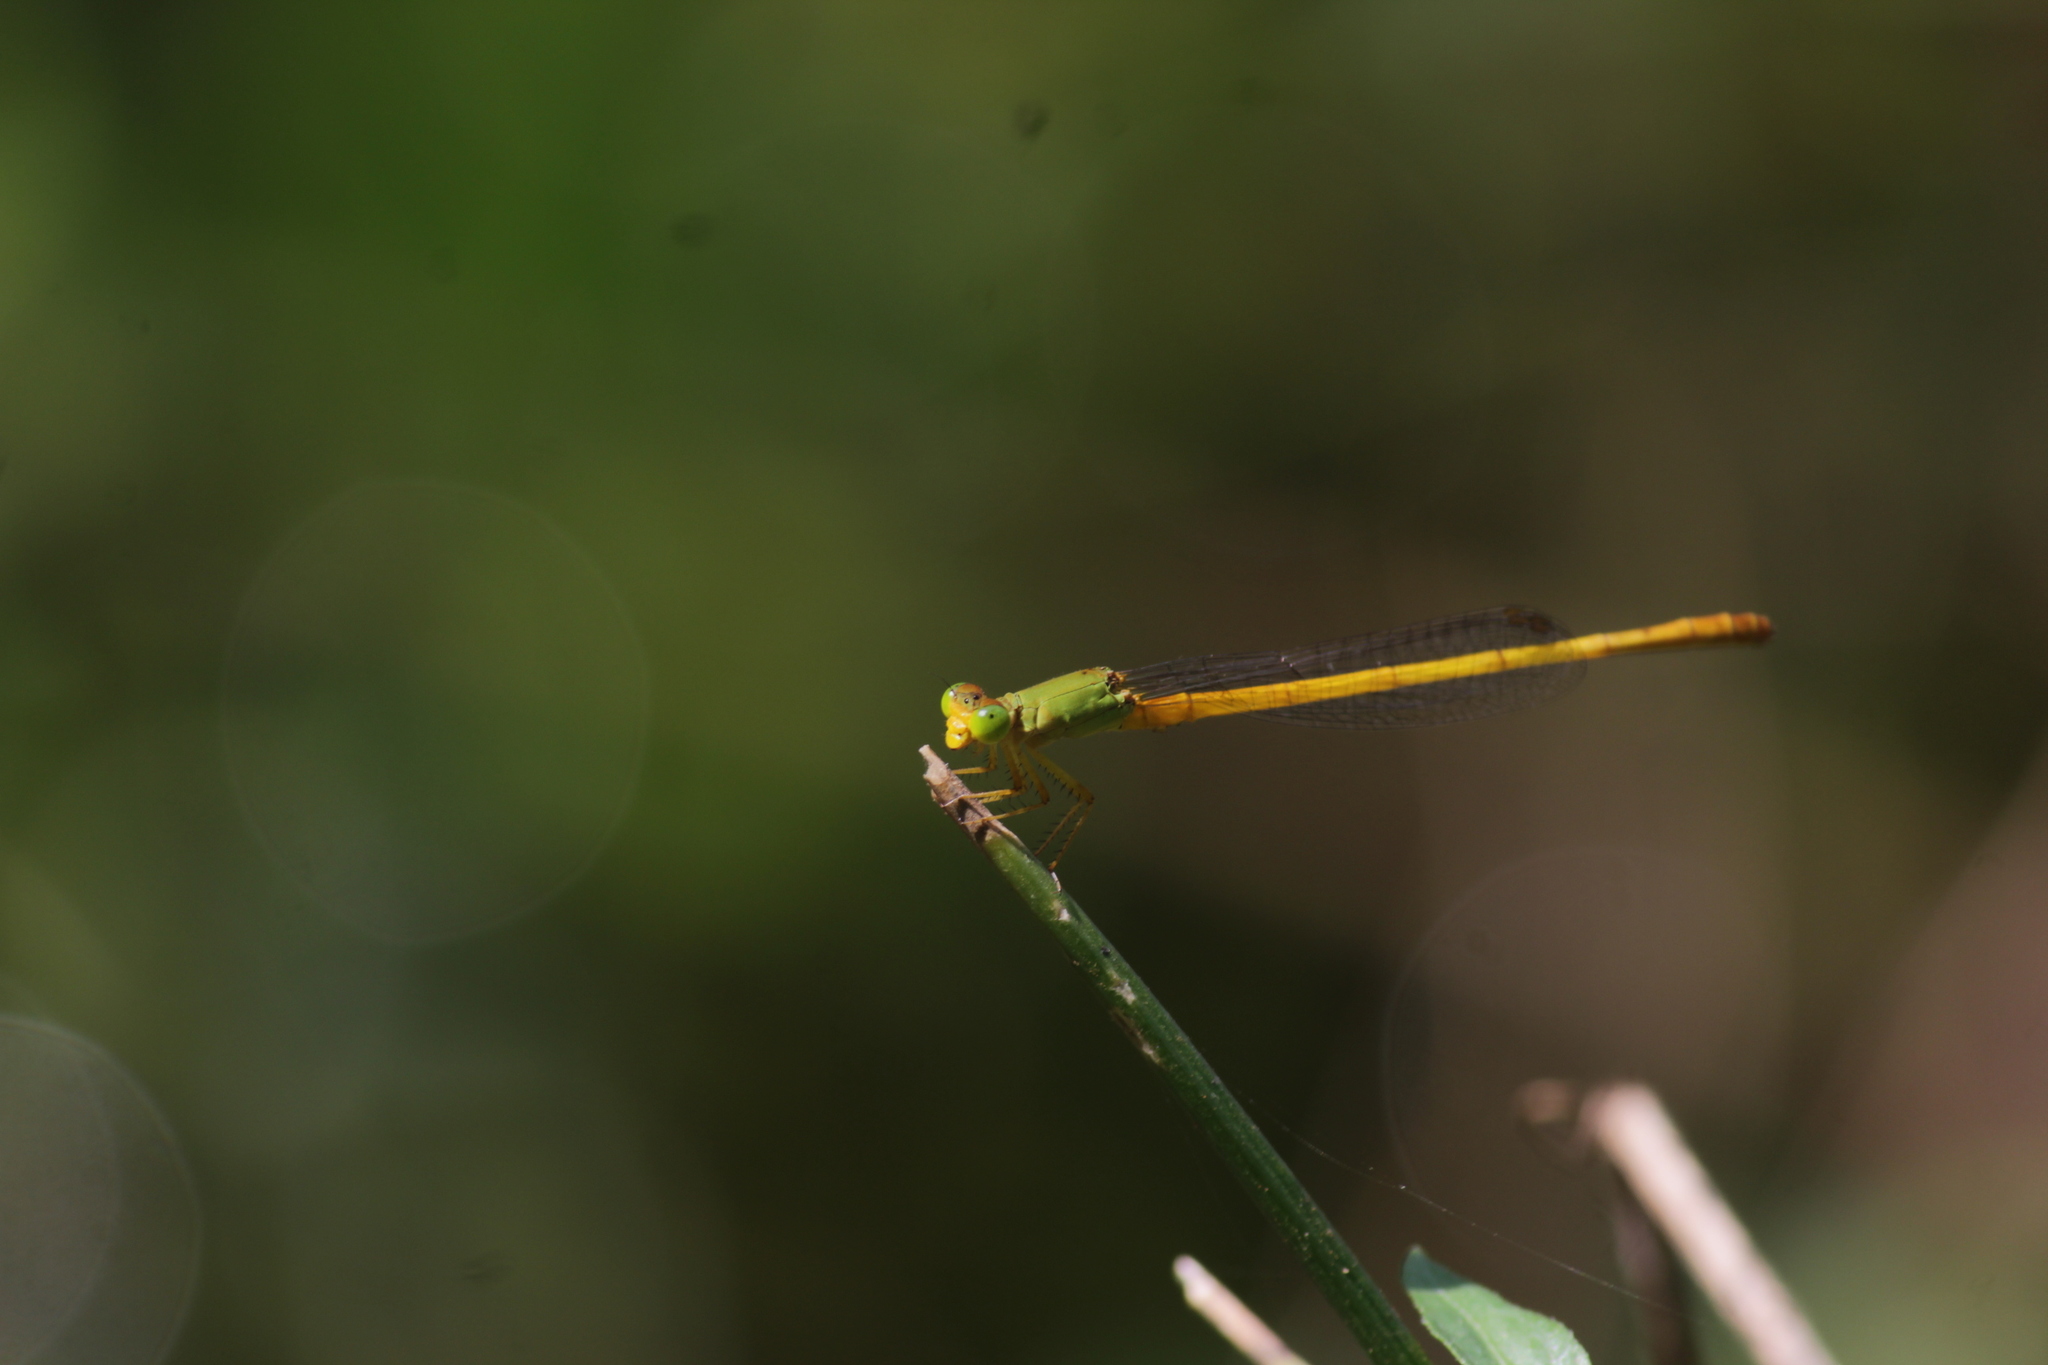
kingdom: Animalia
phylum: Arthropoda
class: Insecta
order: Odonata
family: Coenagrionidae
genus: Ceriagrion
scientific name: Ceriagrion coromandelianum
